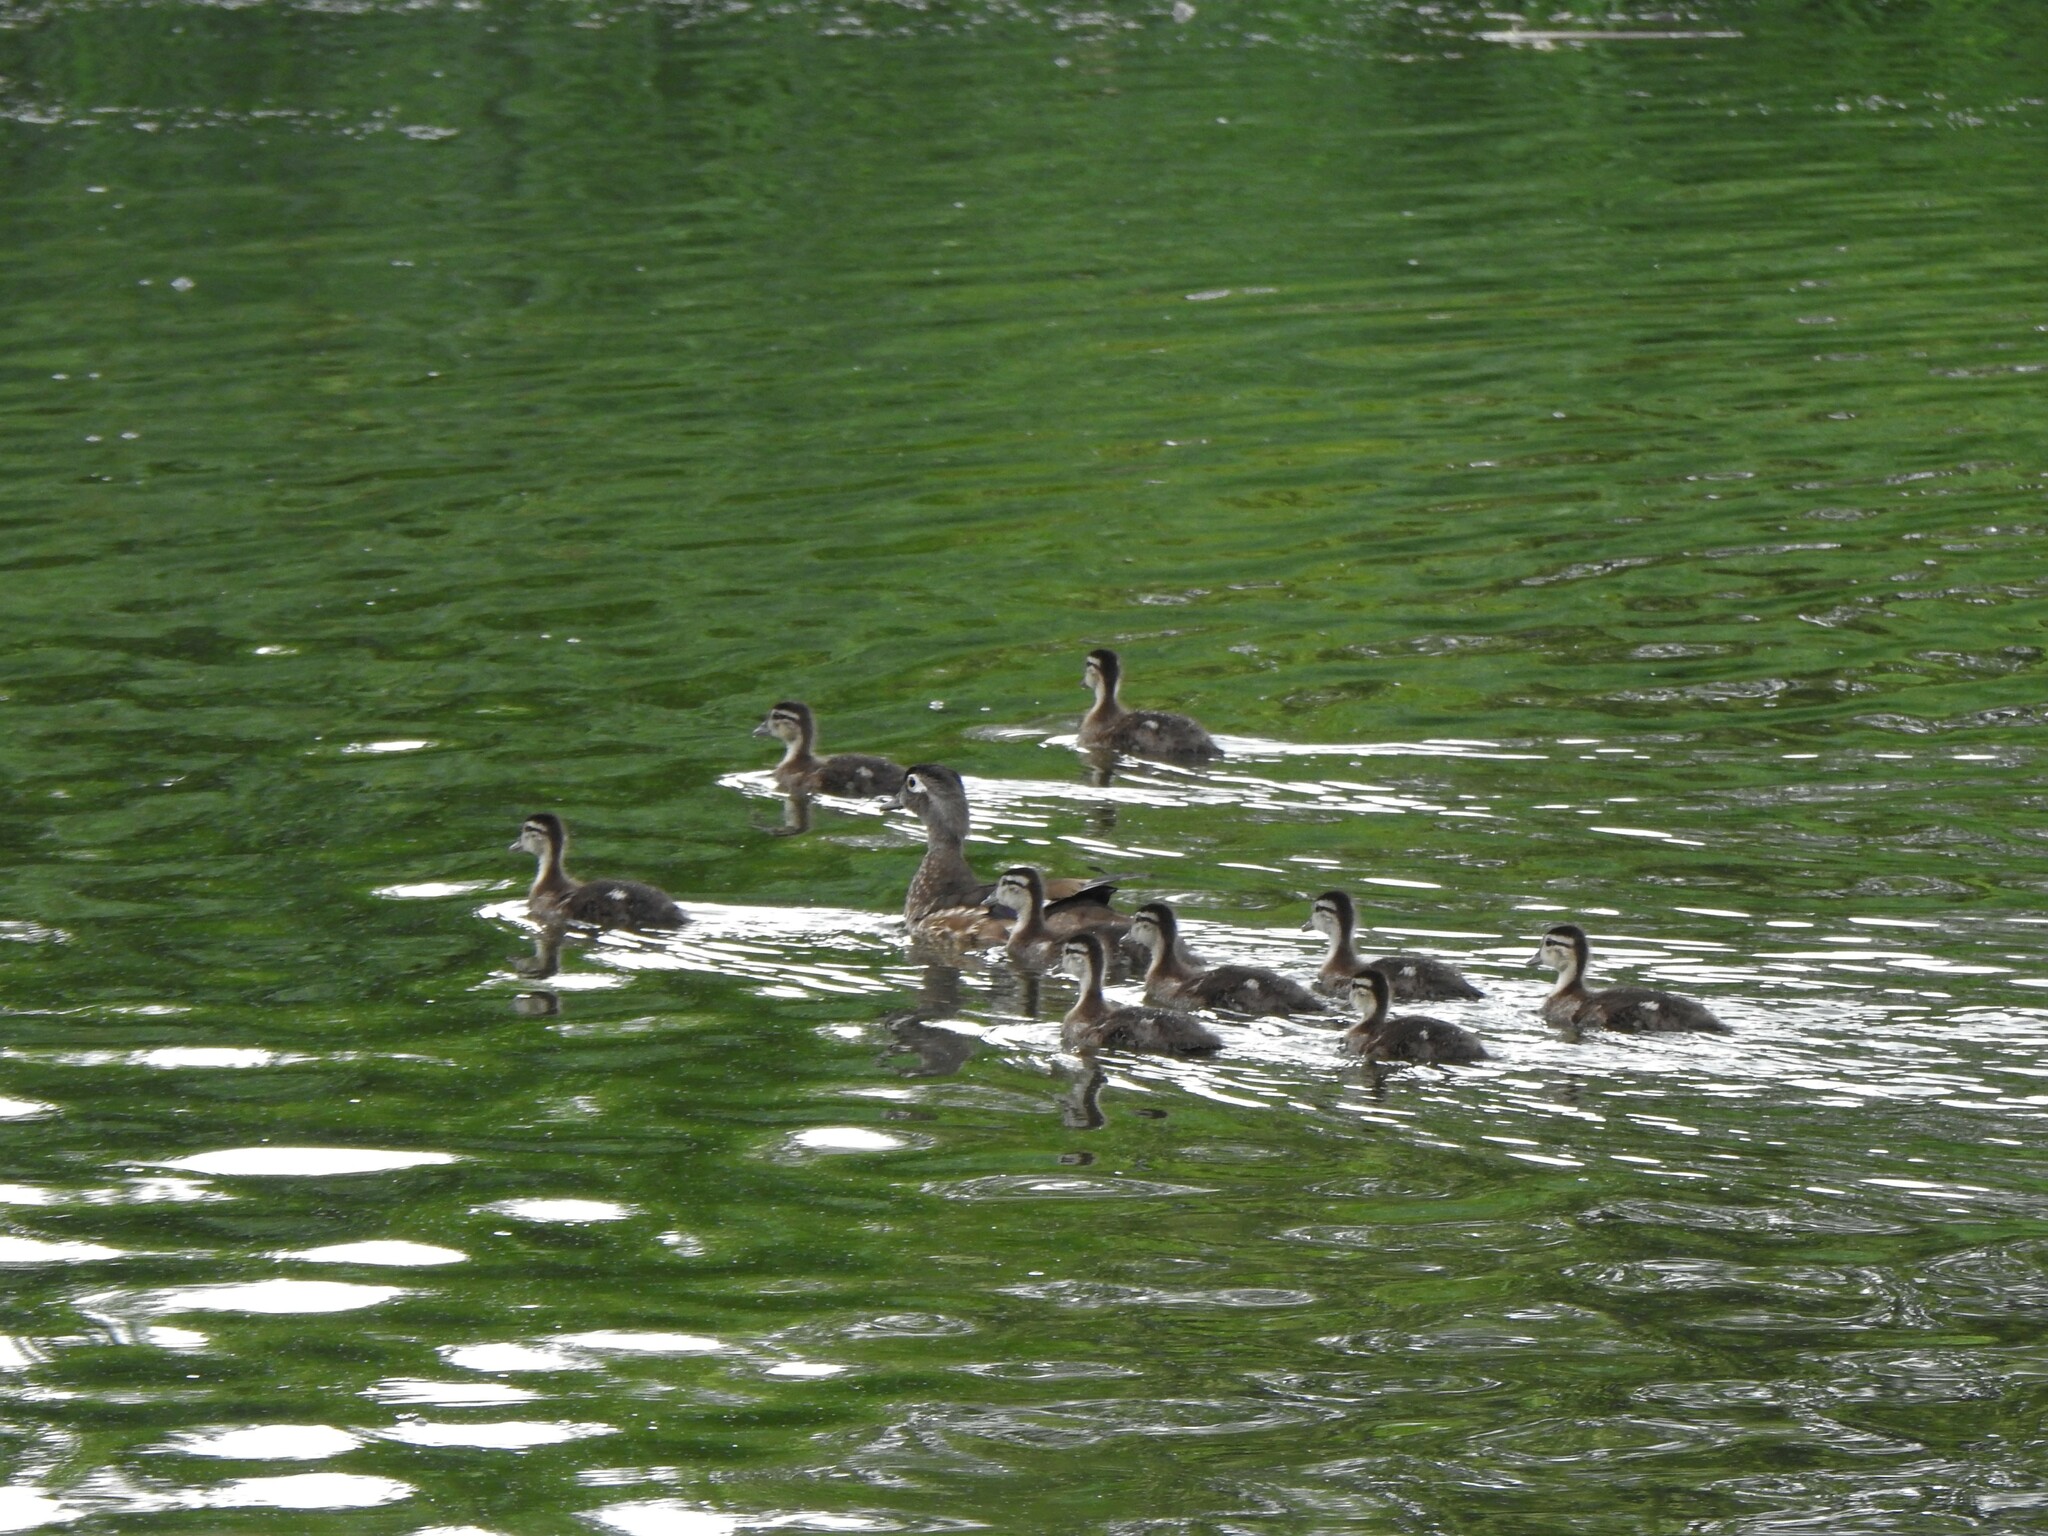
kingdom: Animalia
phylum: Chordata
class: Aves
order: Anseriformes
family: Anatidae
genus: Aix
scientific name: Aix sponsa
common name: Wood duck
